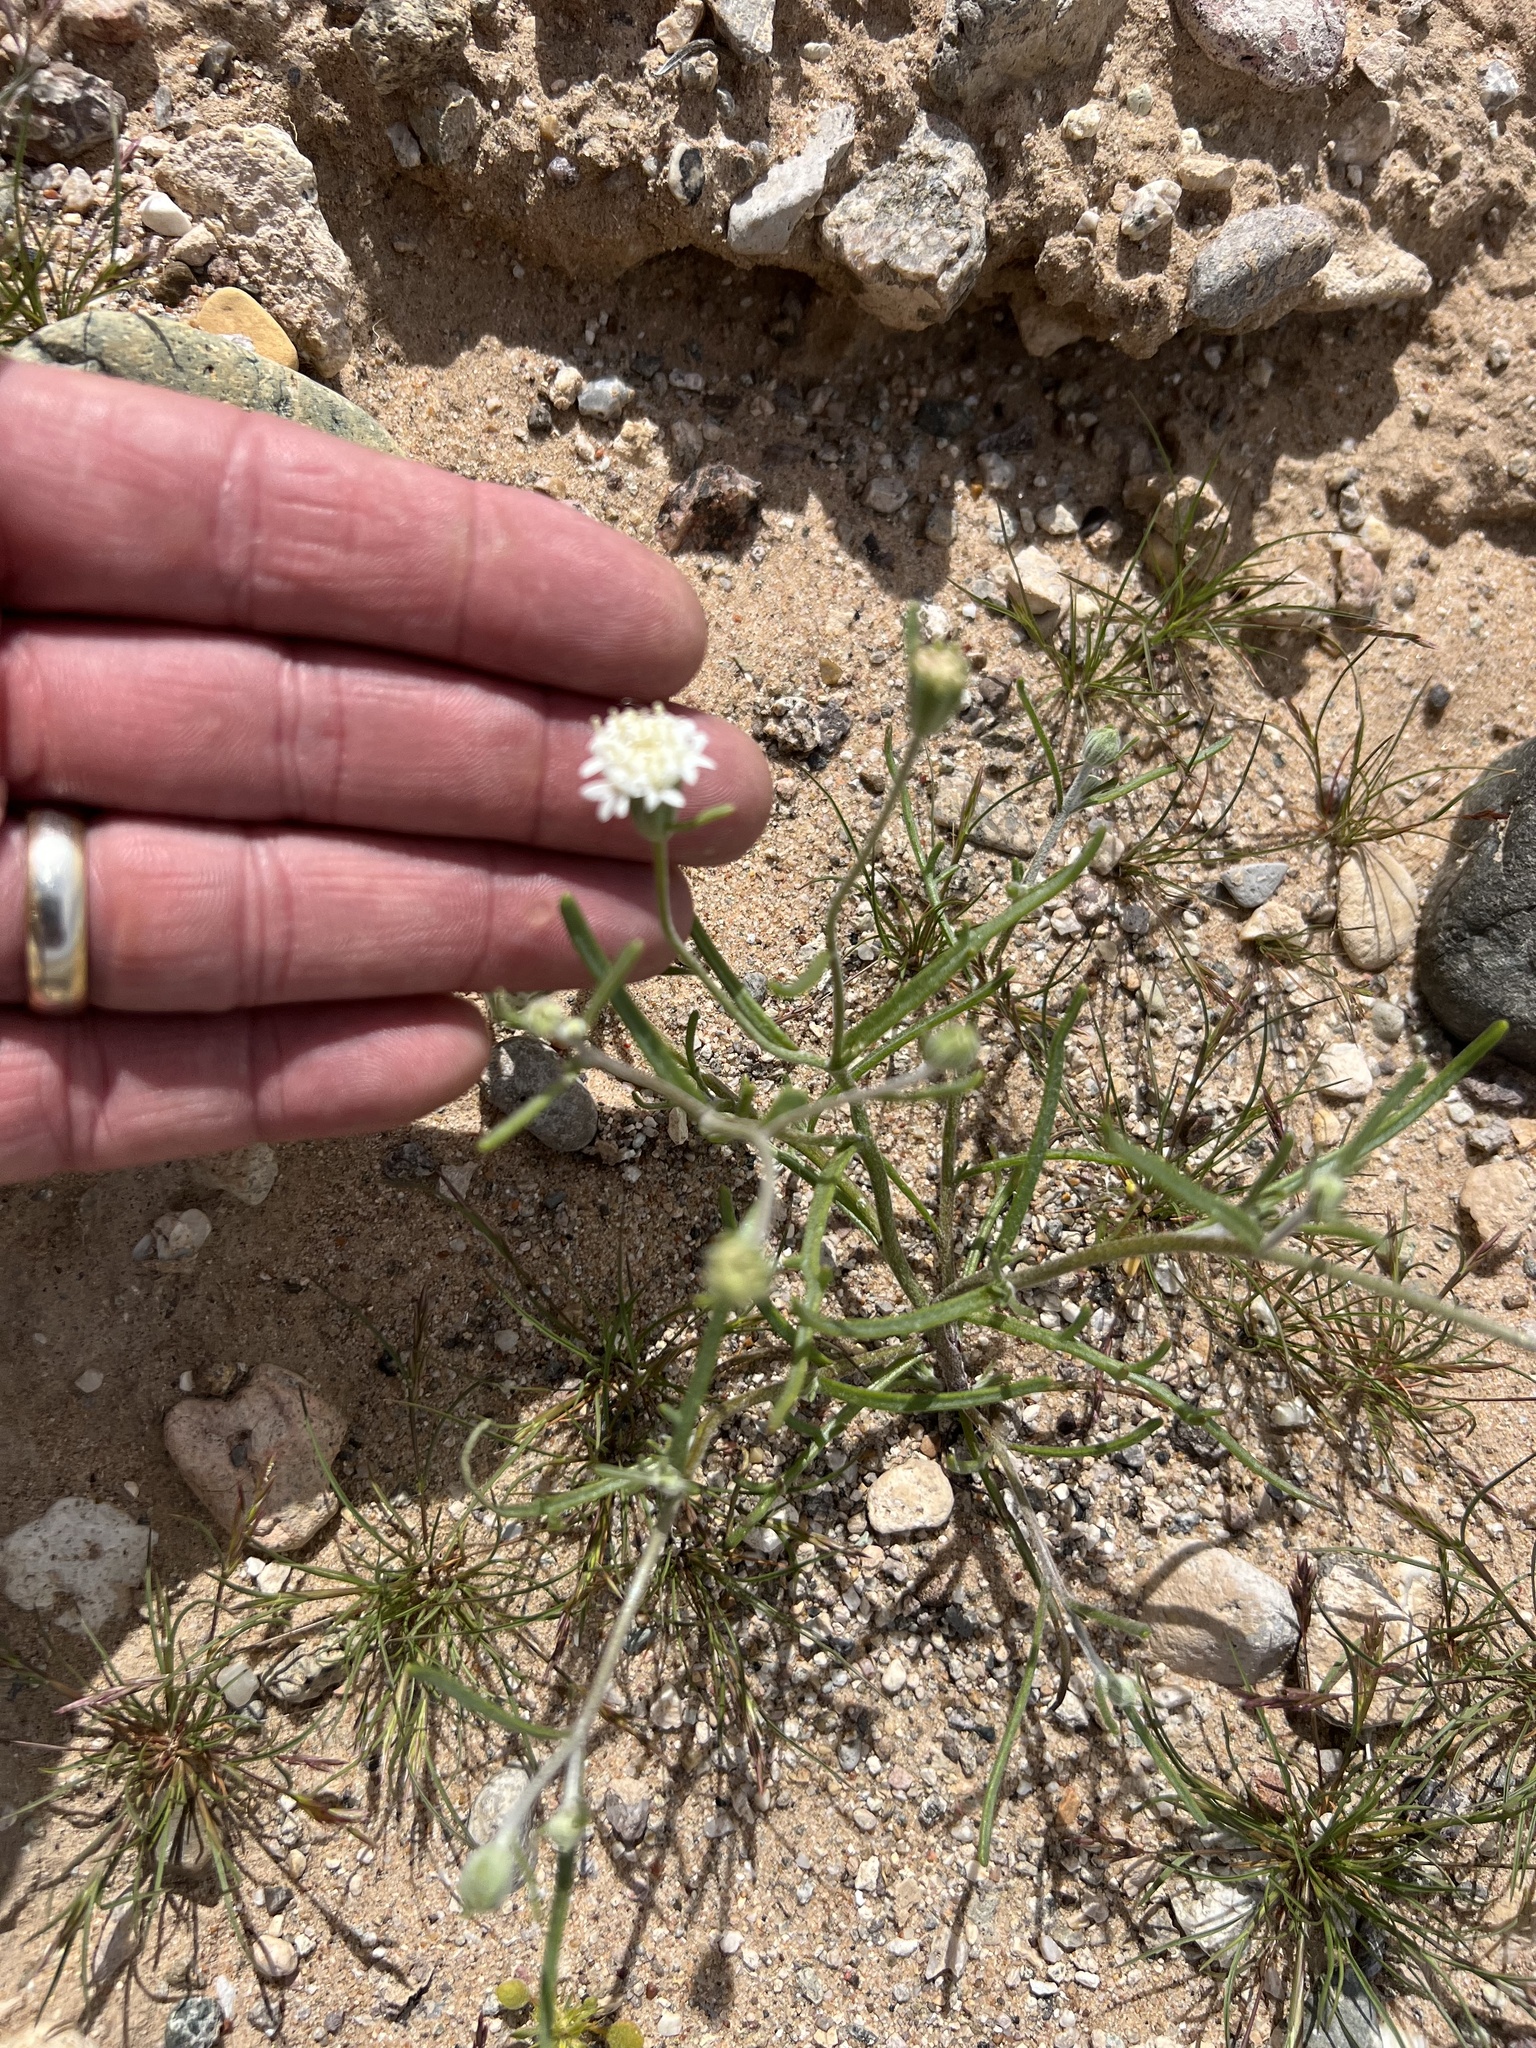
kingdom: Plantae
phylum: Tracheophyta
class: Magnoliopsida
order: Asterales
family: Asteraceae
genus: Chaenactis
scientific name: Chaenactis stevioides
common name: Desert pincushion
